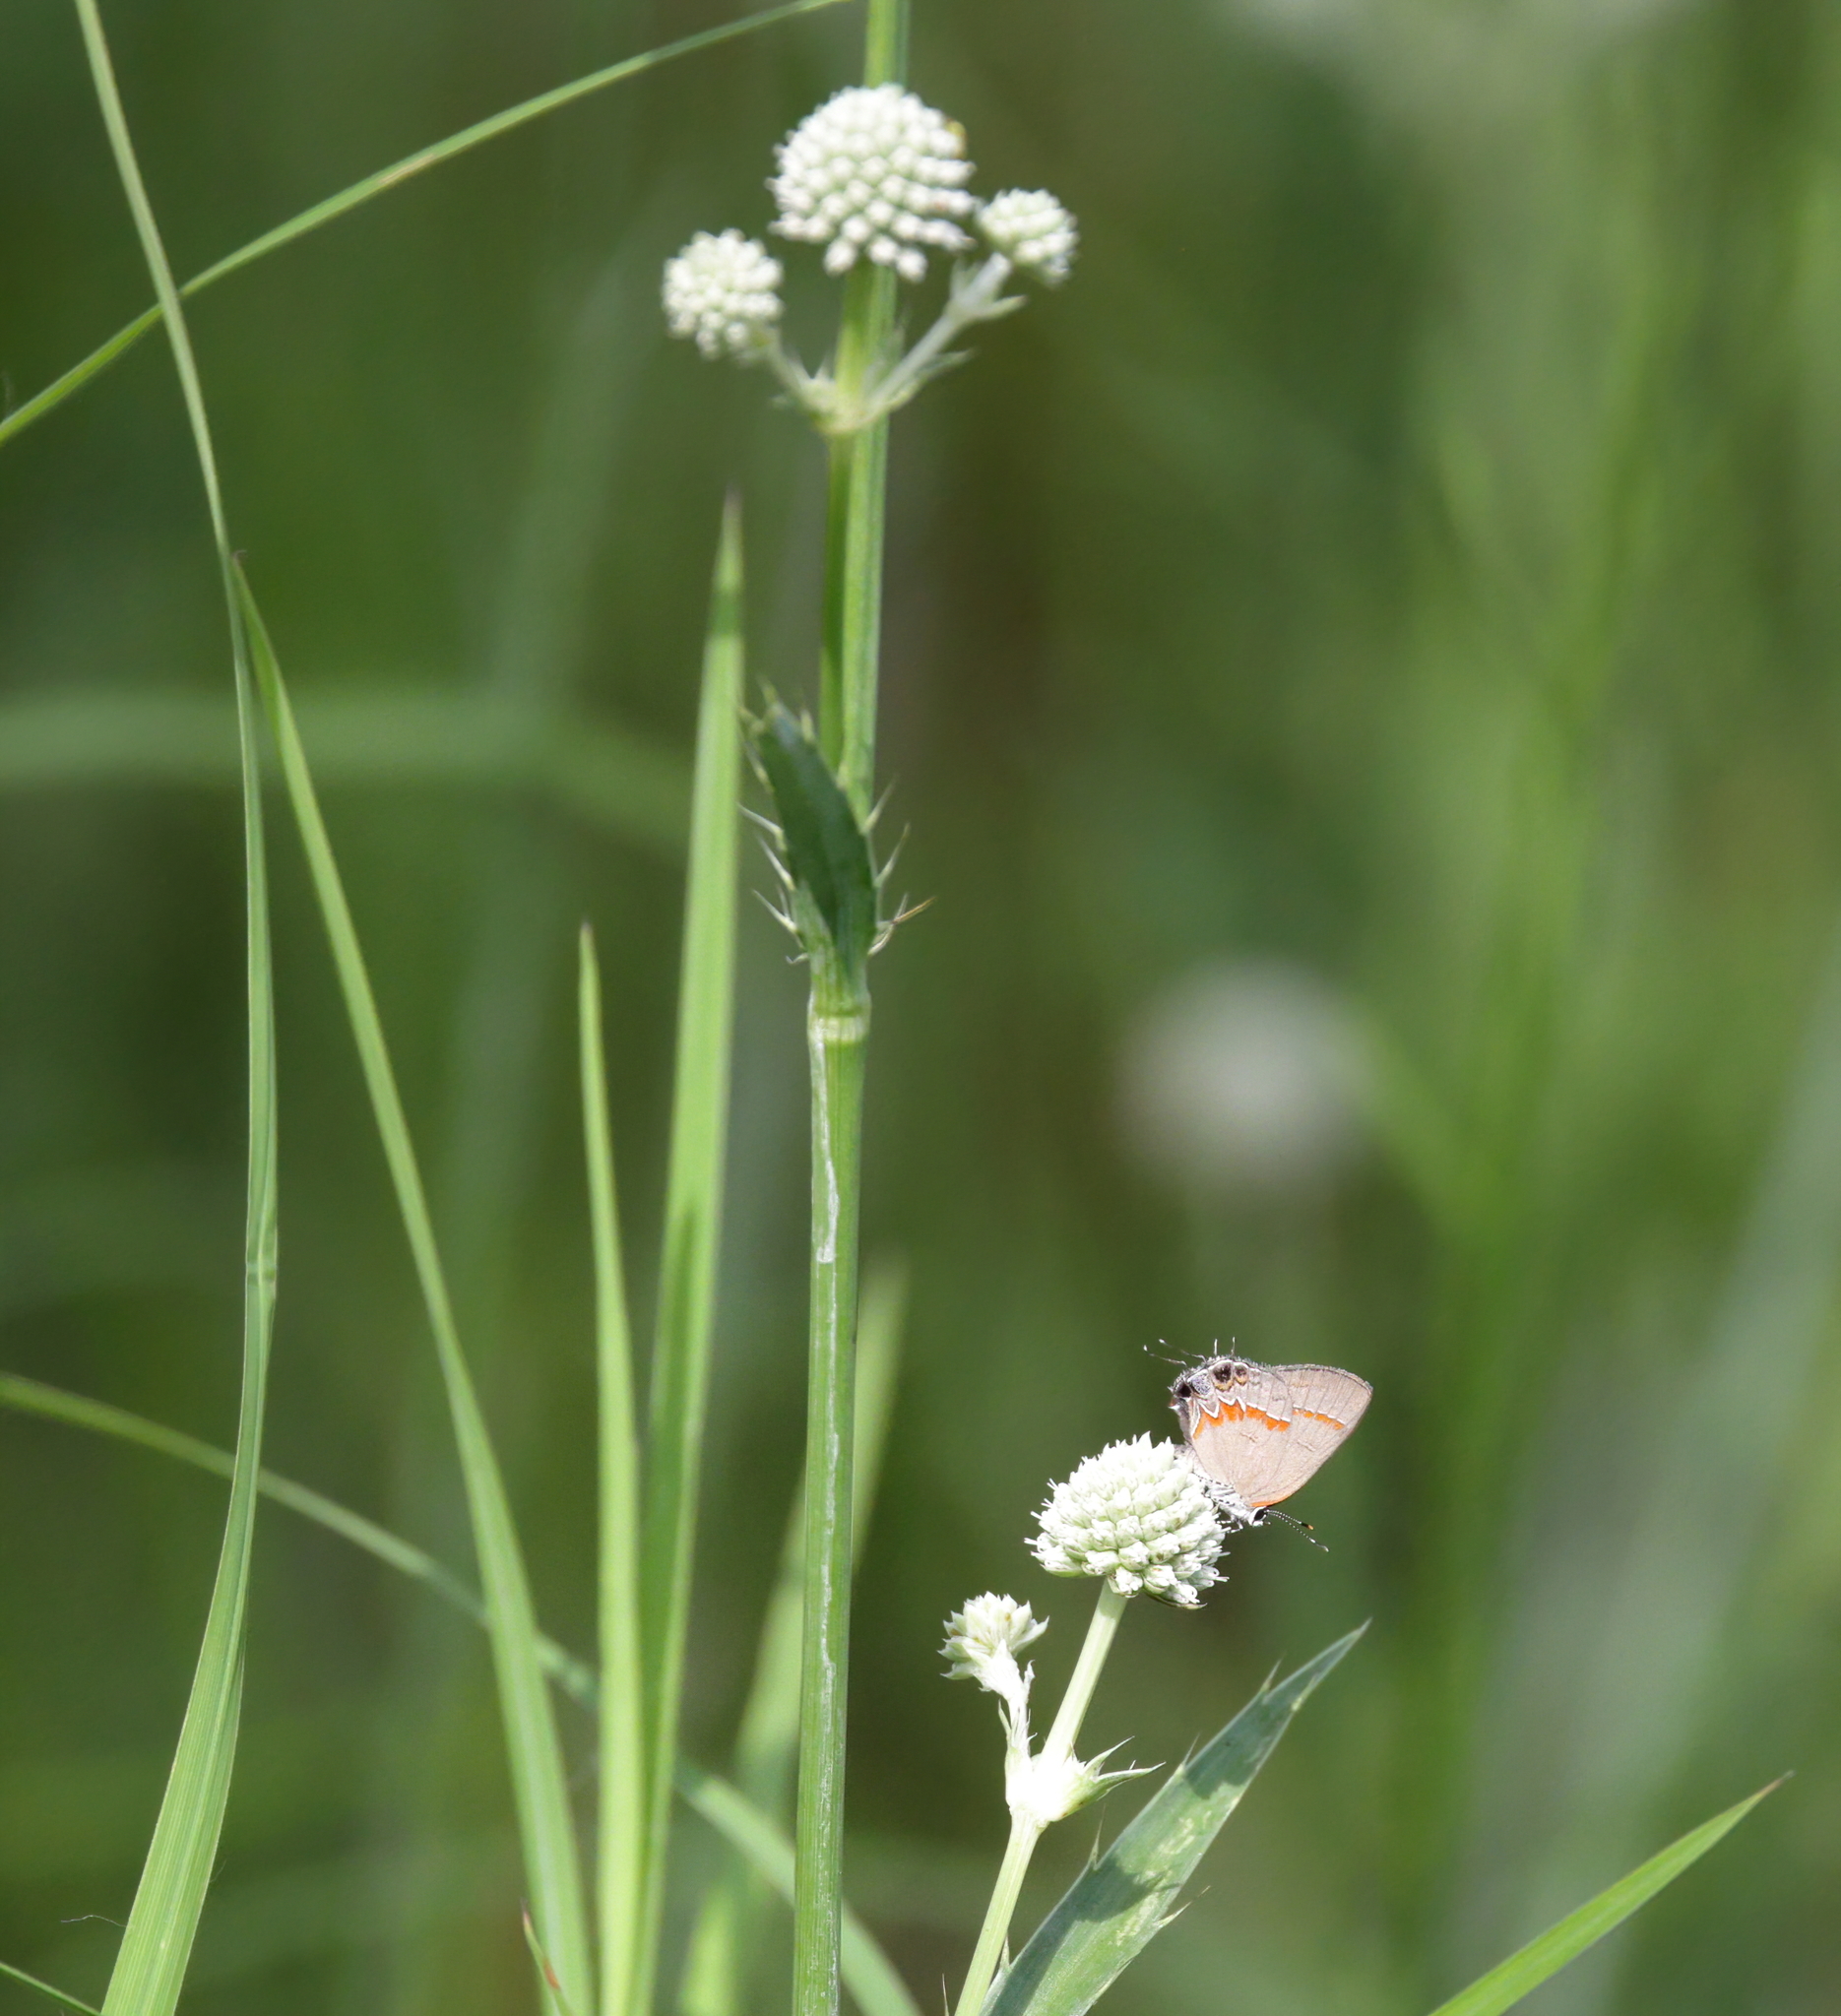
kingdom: Animalia
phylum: Arthropoda
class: Insecta
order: Lepidoptera
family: Lycaenidae
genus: Calycopis
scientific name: Calycopis cecrops
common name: Red-banded hairstreak
